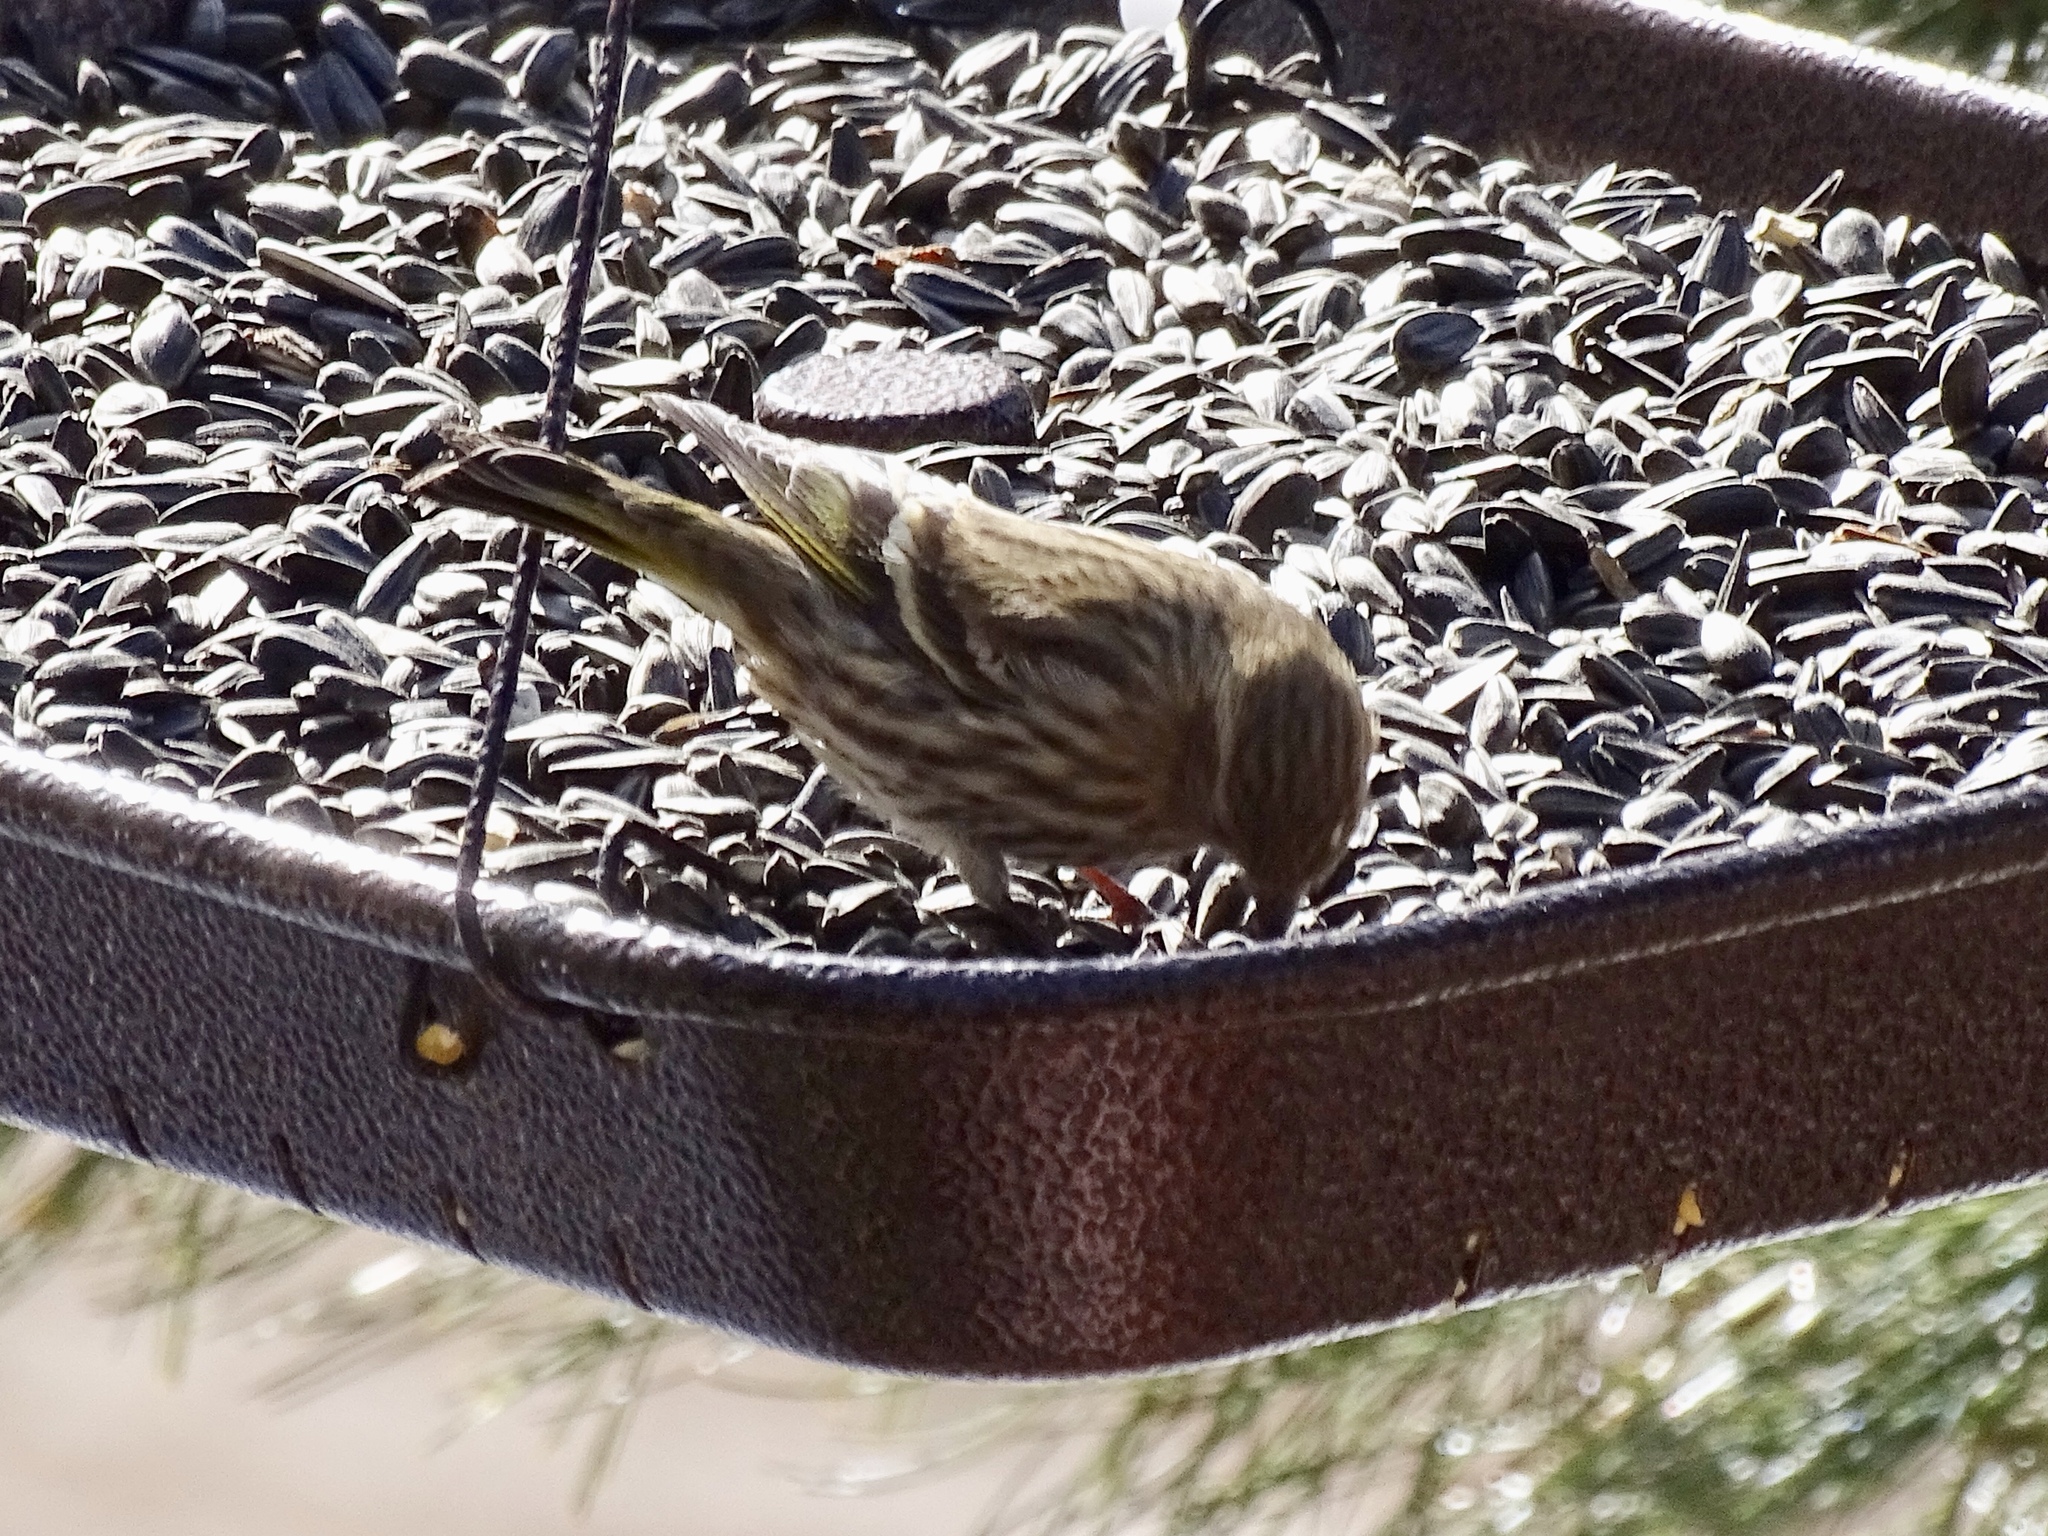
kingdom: Animalia
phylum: Chordata
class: Aves
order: Passeriformes
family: Fringillidae
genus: Spinus
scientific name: Spinus pinus
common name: Pine siskin
